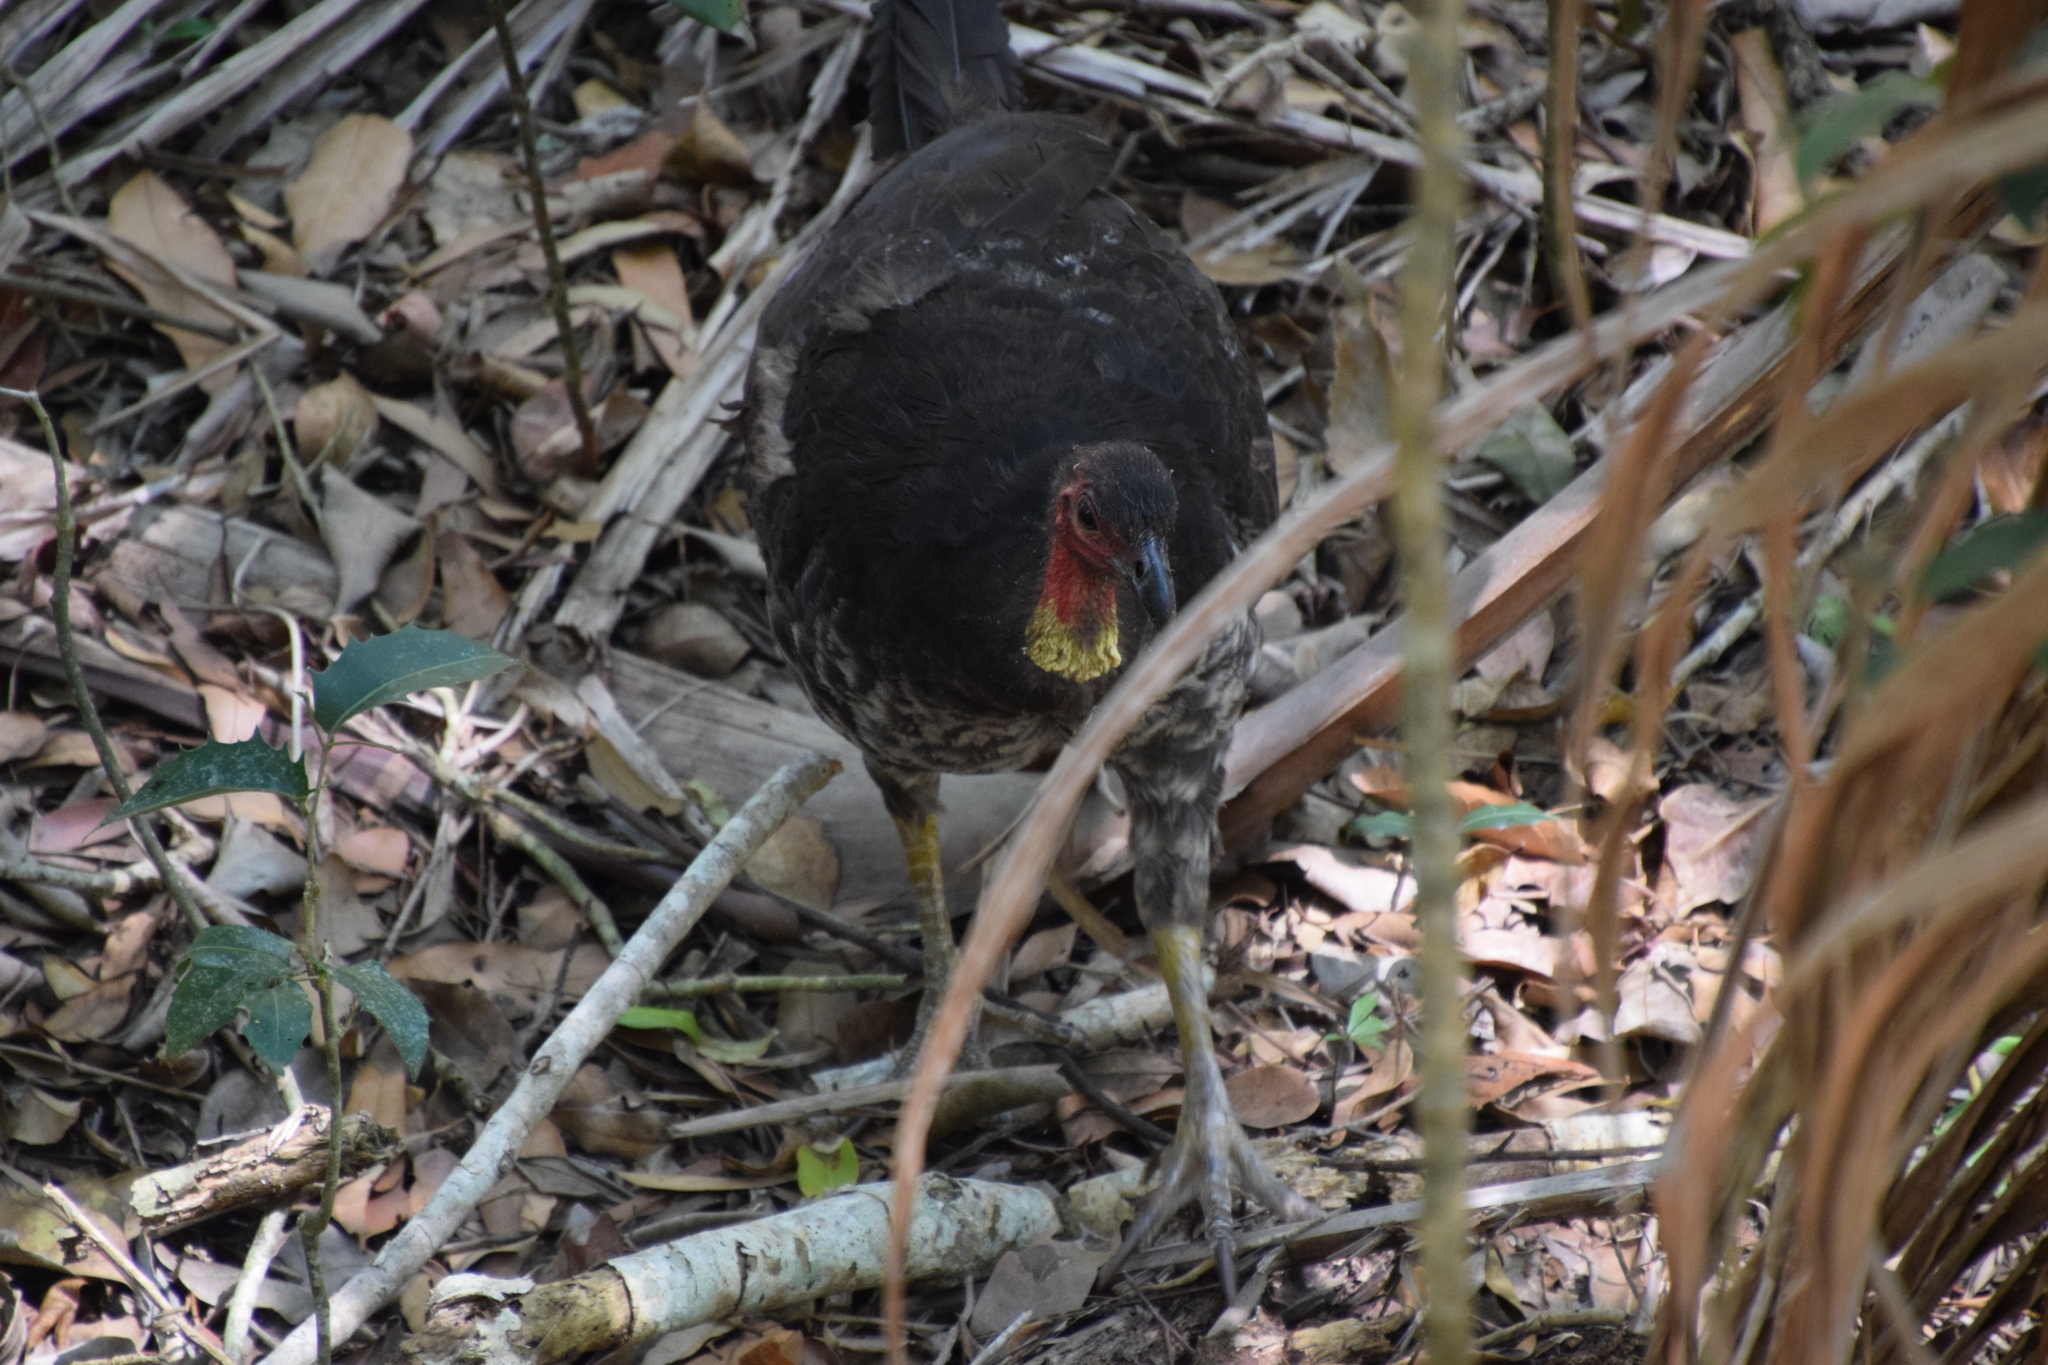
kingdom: Animalia
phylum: Chordata
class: Aves
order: Galliformes
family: Megapodiidae
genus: Alectura
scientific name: Alectura lathami
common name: Australian brushturkey
